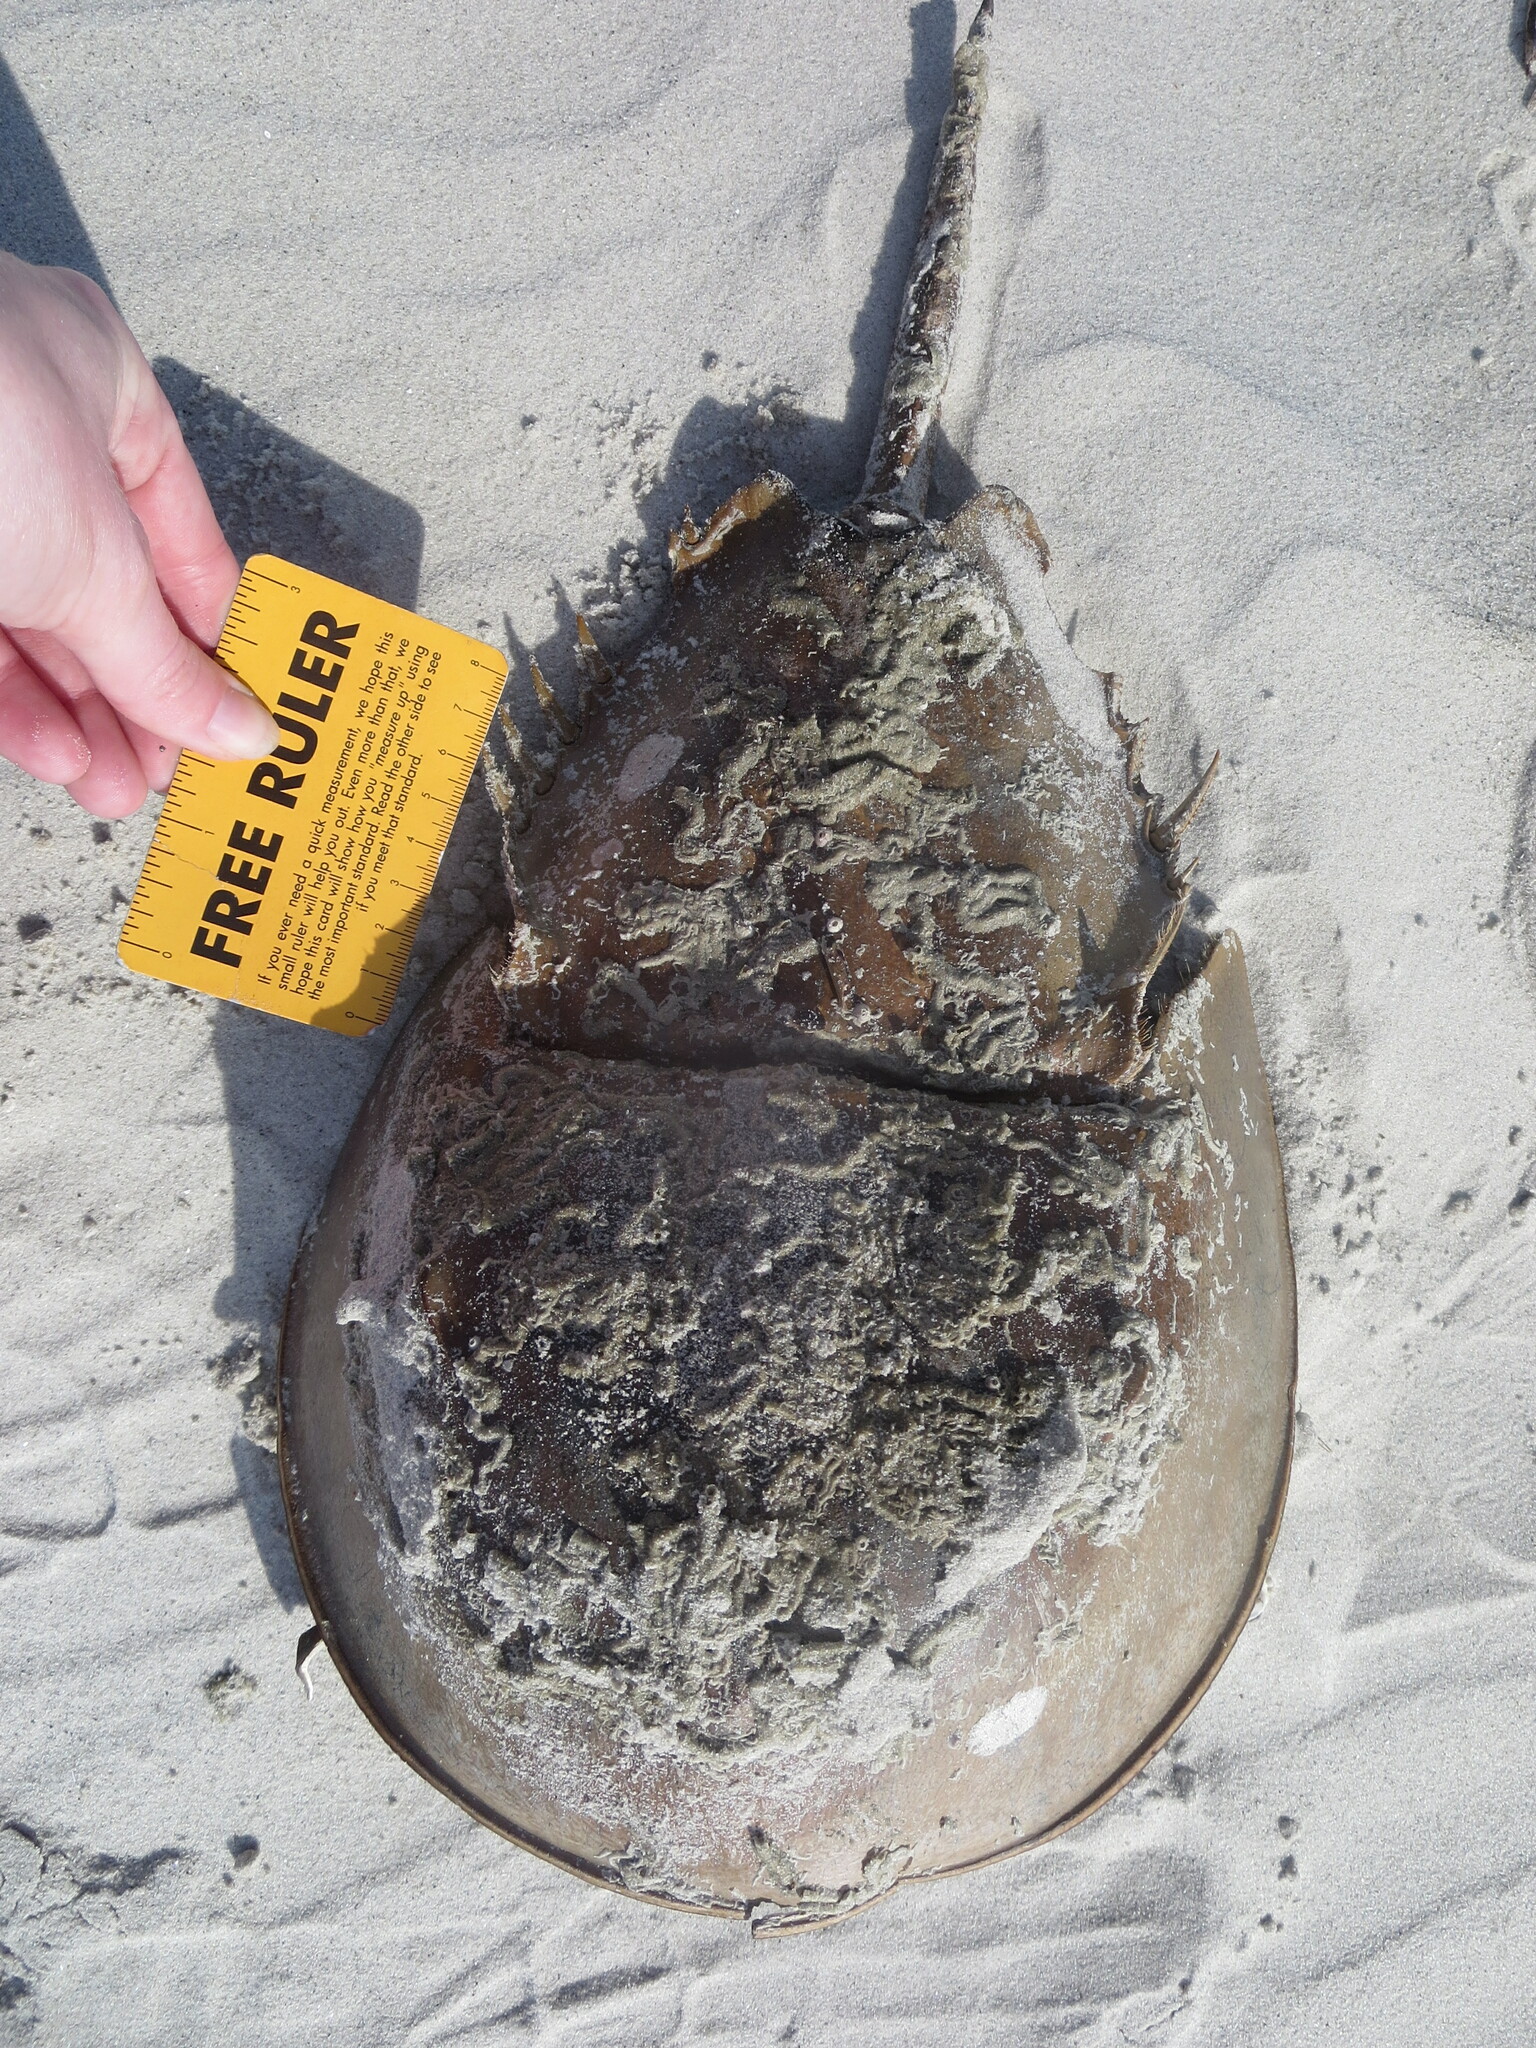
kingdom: Animalia
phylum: Arthropoda
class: Merostomata
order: Xiphosurida
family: Limulidae
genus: Limulus
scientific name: Limulus polyphemus
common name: Horseshoe crab
